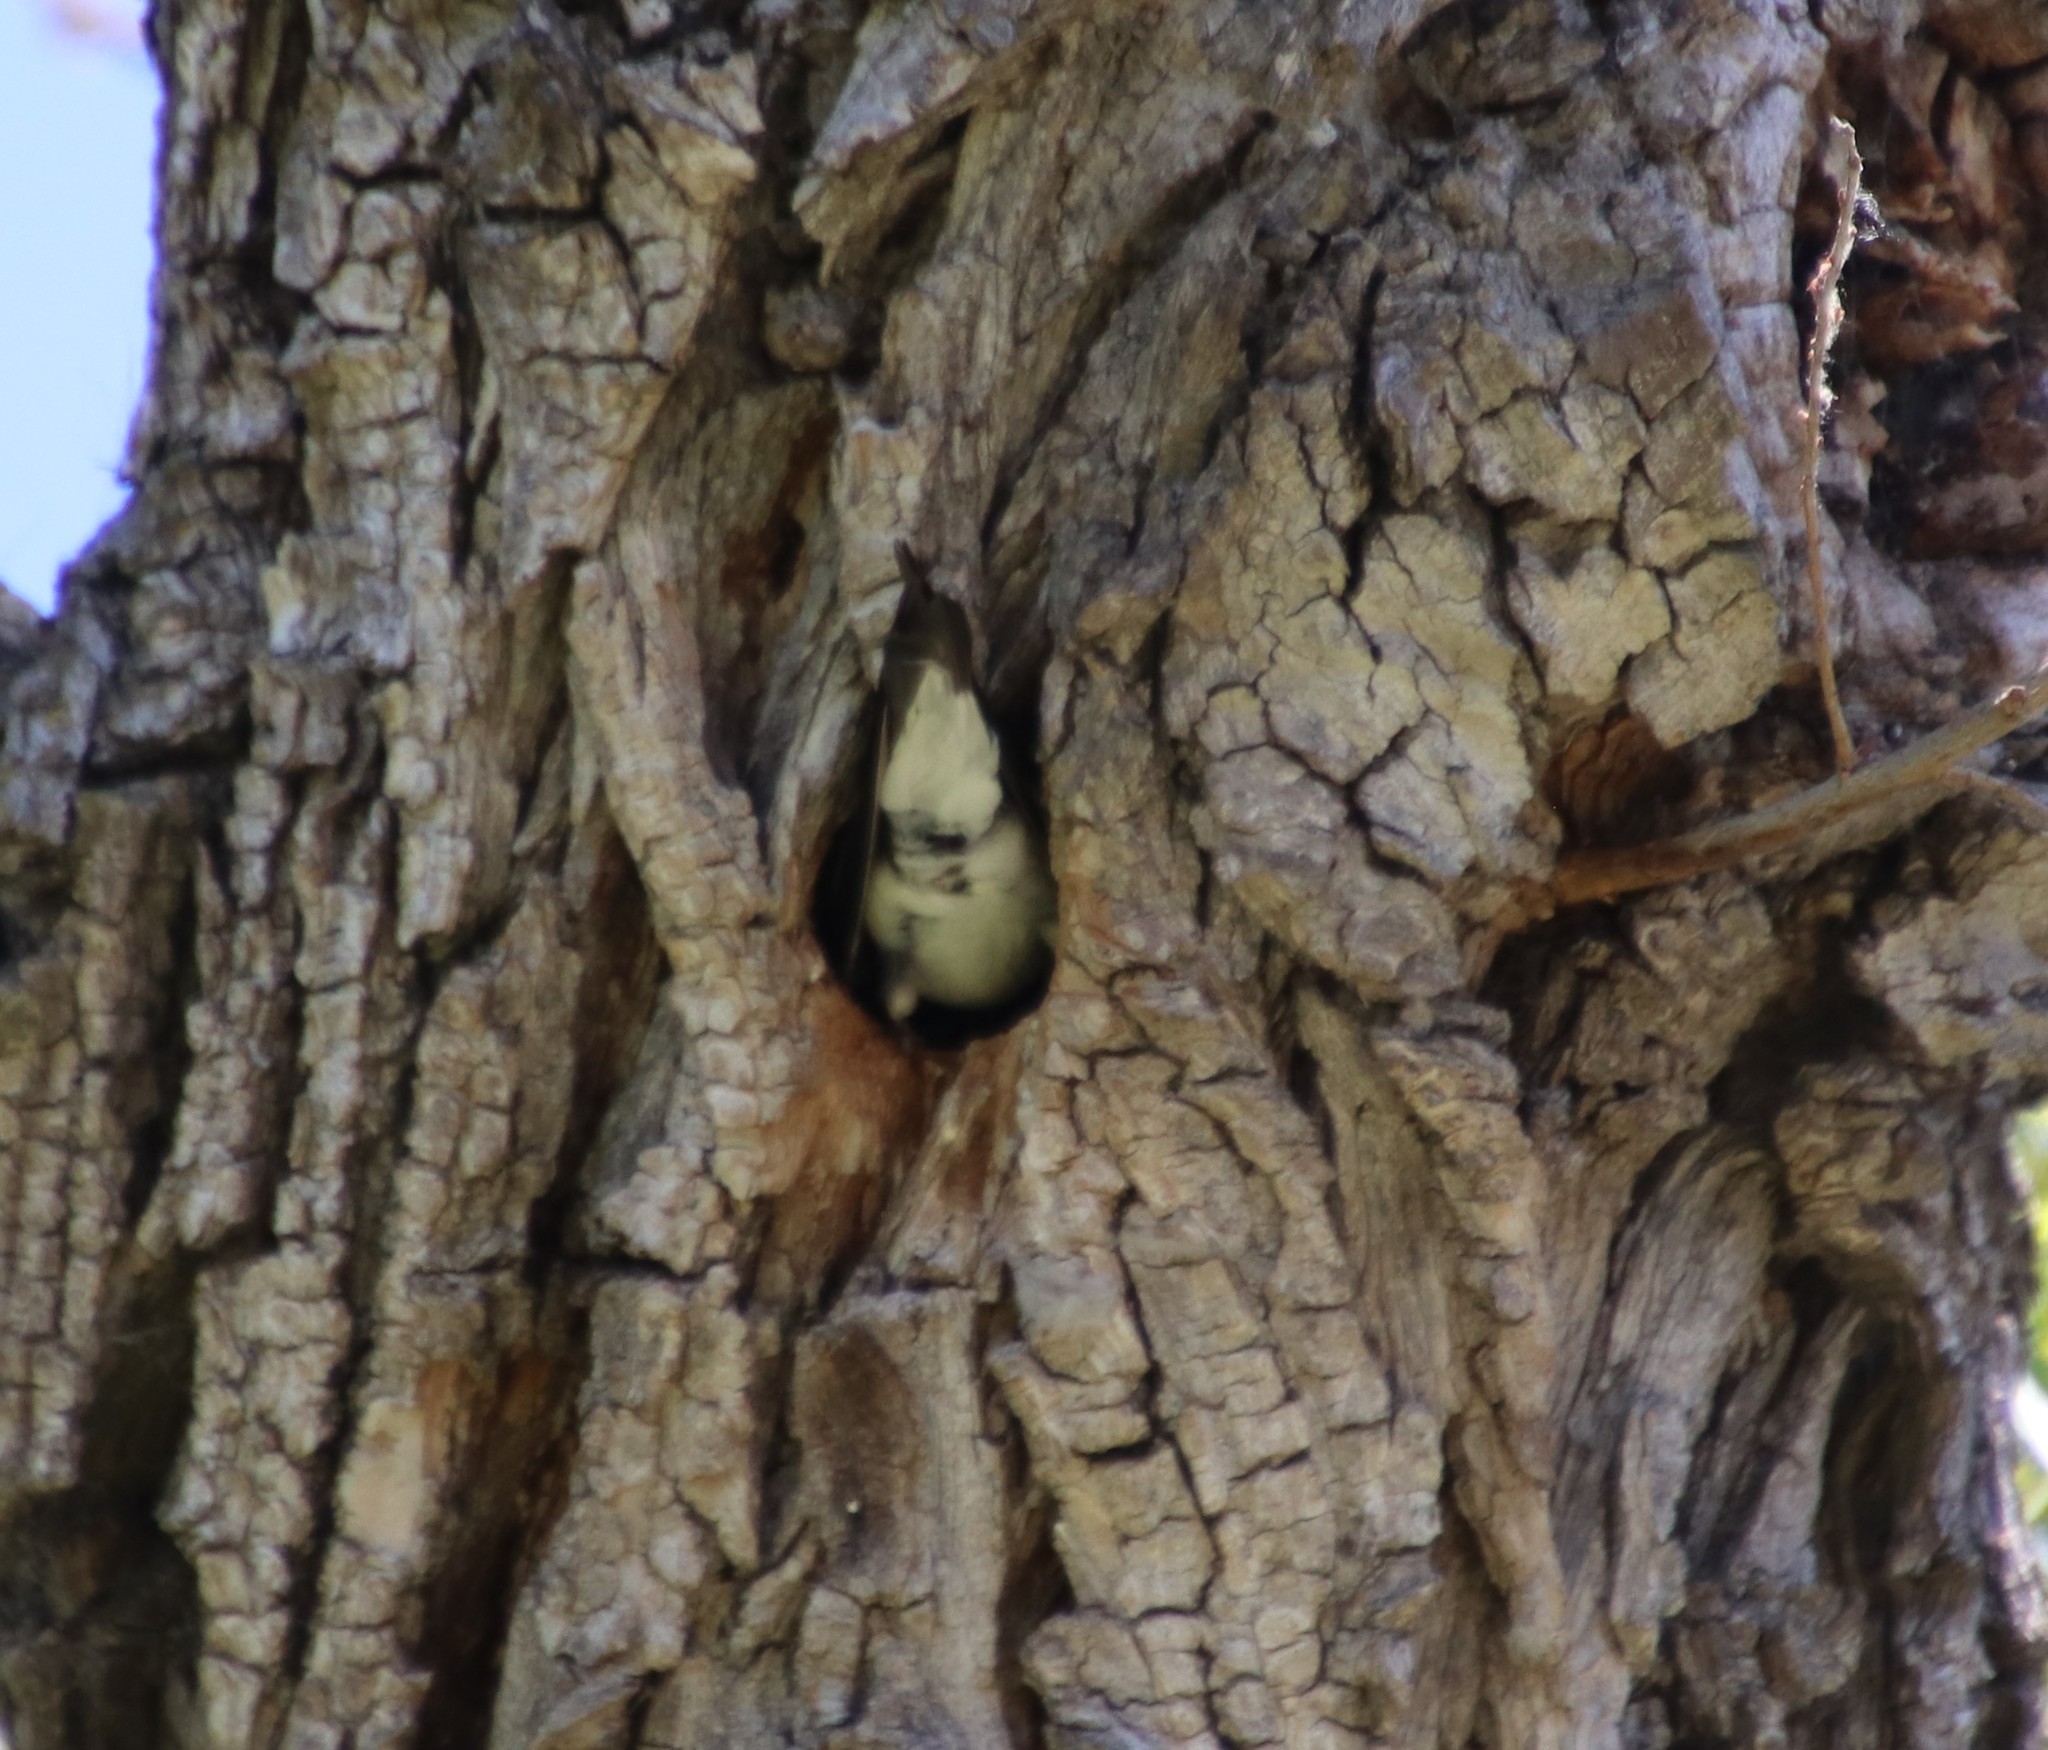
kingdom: Animalia
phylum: Chordata
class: Aves
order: Passeriformes
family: Hirundinidae
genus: Tachycineta
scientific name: Tachycineta bicolor
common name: Tree swallow
